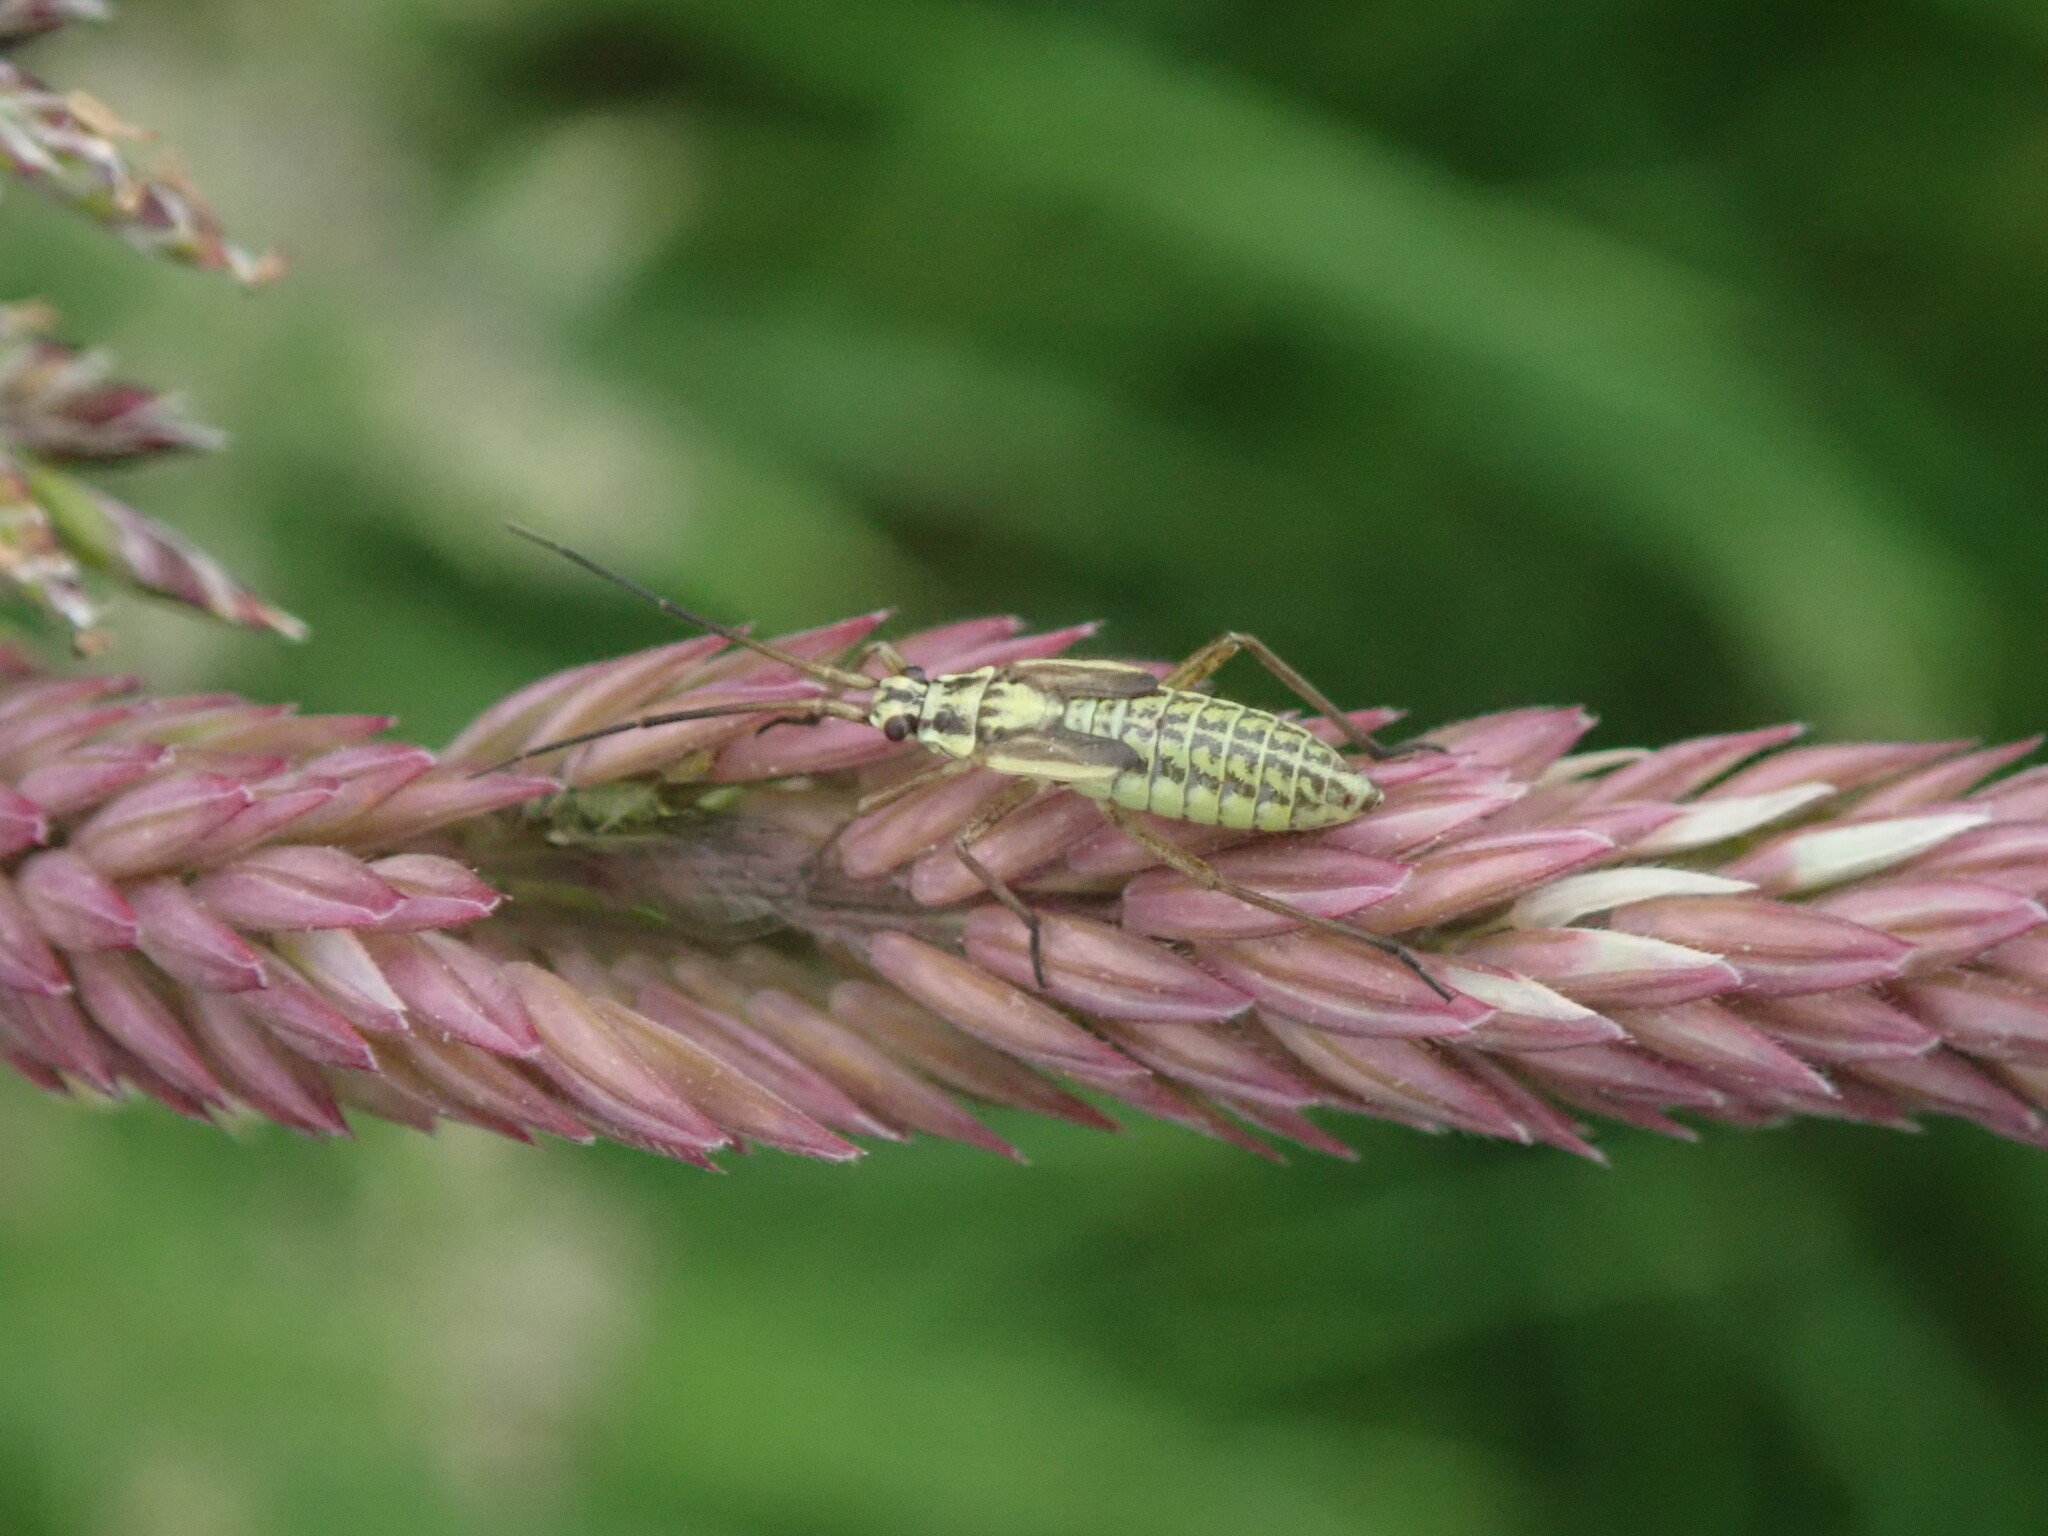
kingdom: Animalia
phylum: Arthropoda
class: Insecta
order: Hemiptera
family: Miridae
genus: Leptopterna
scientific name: Leptopterna dolabrata
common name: Meadow plant bug
